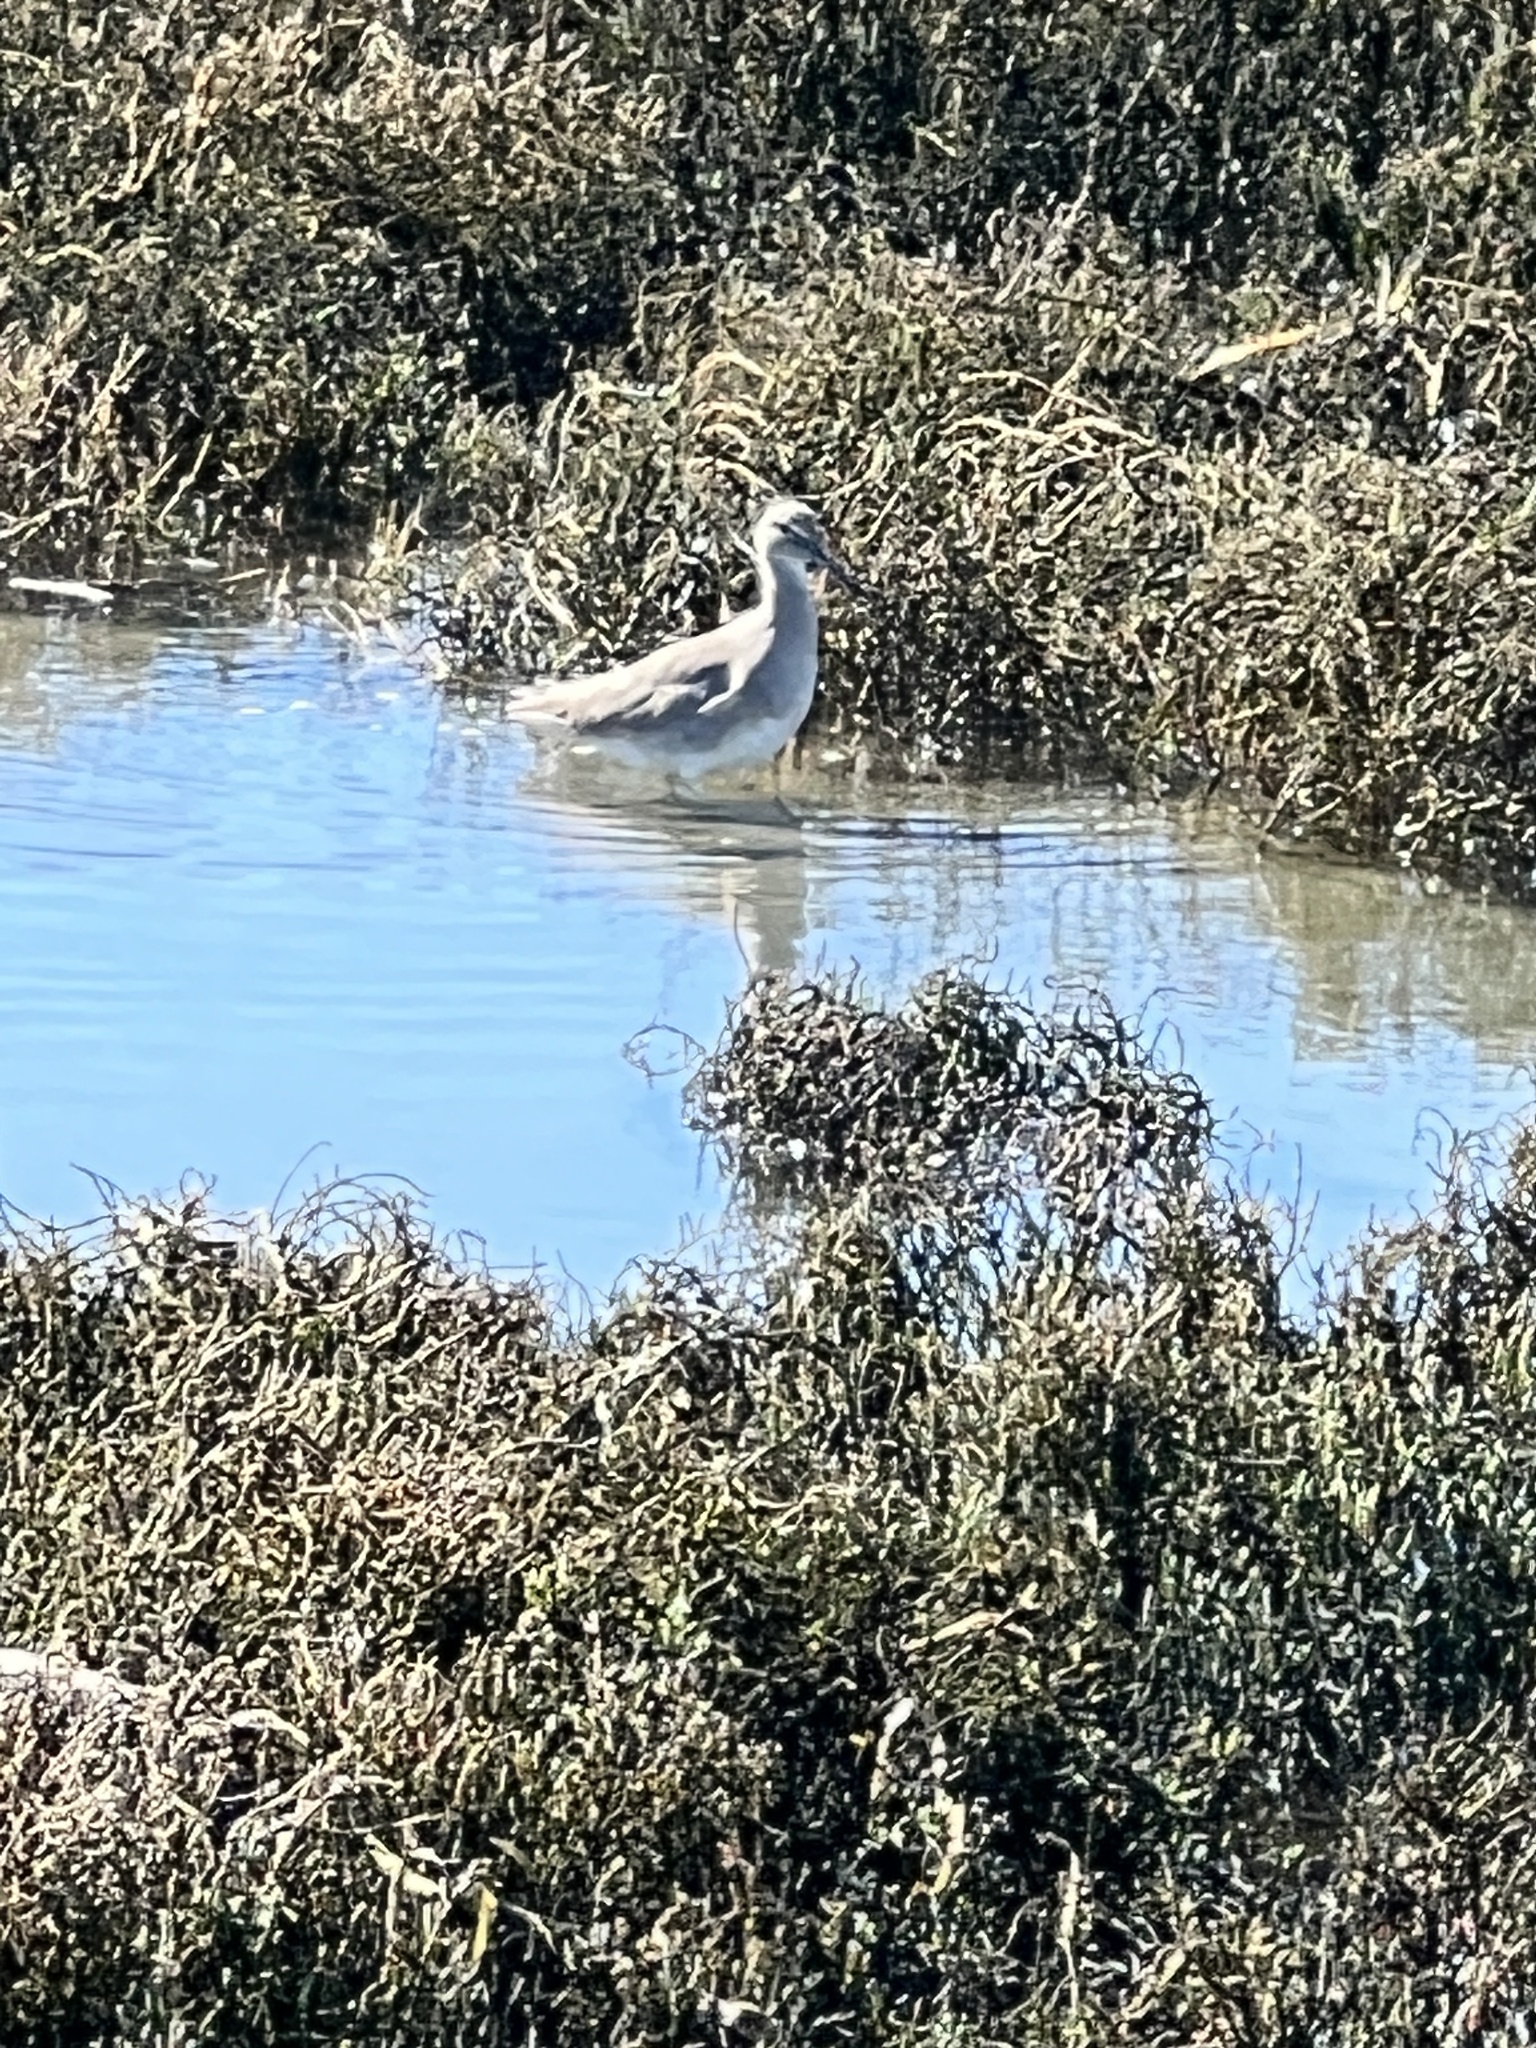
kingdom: Animalia
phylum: Chordata
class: Aves
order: Charadriiformes
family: Scolopacidae
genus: Tringa
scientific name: Tringa semipalmata
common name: Willet
